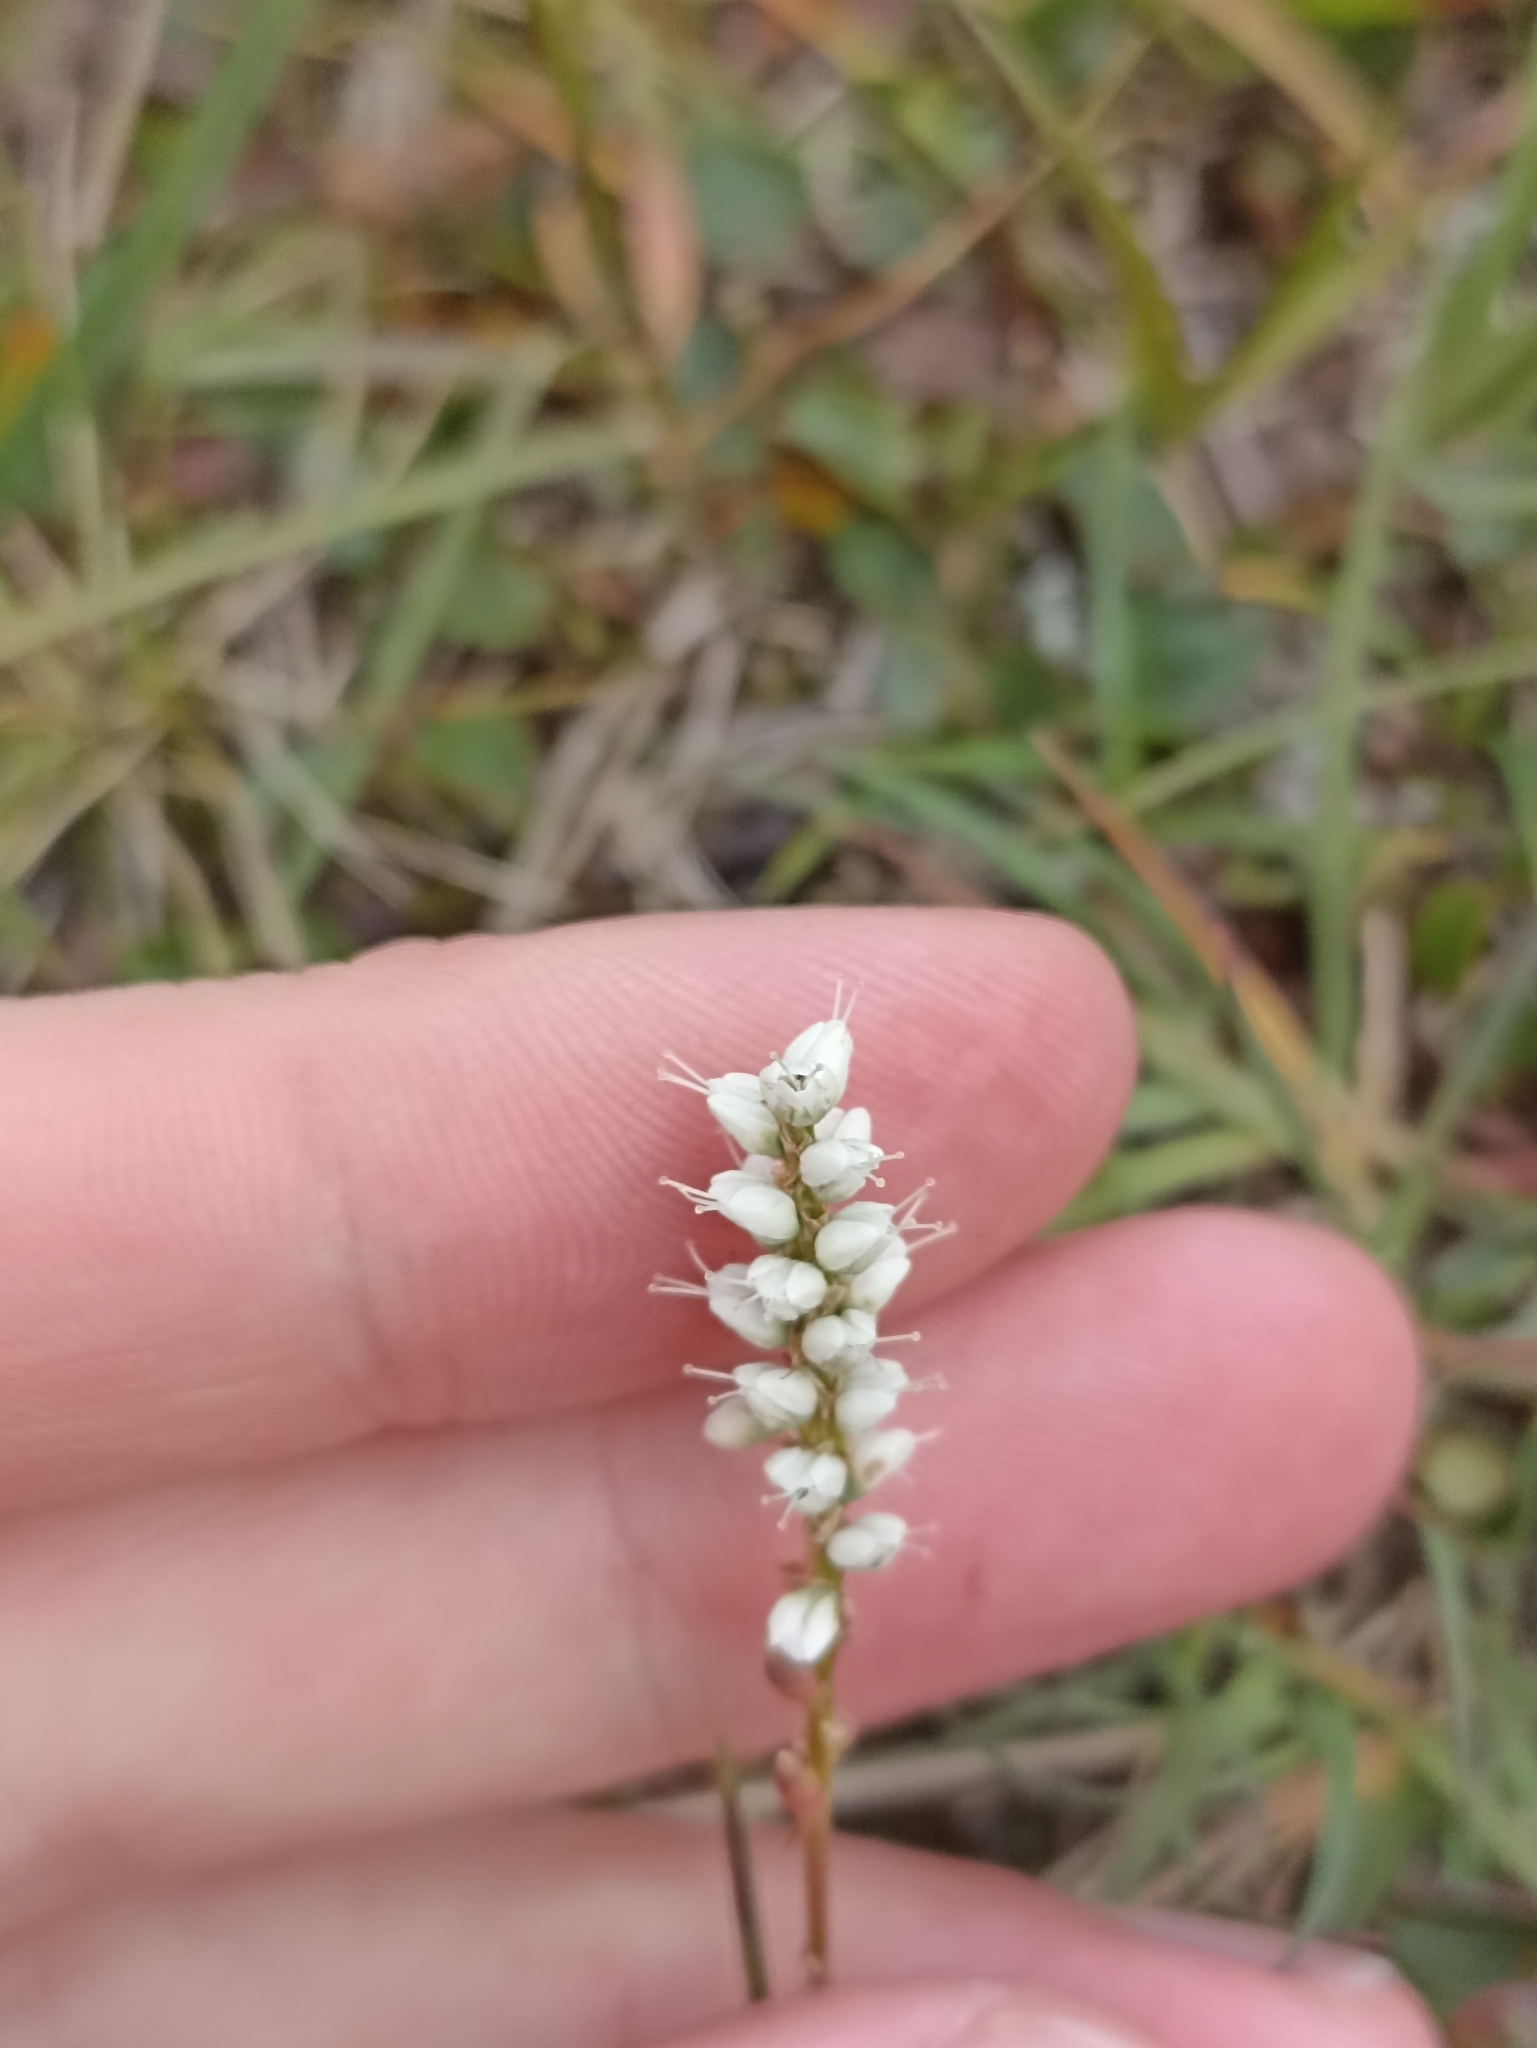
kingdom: Plantae
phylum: Tracheophyta
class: Magnoliopsida
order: Caryophyllales
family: Polygonaceae
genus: Bistorta
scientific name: Bistorta vivipara
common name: Alpine bistort
